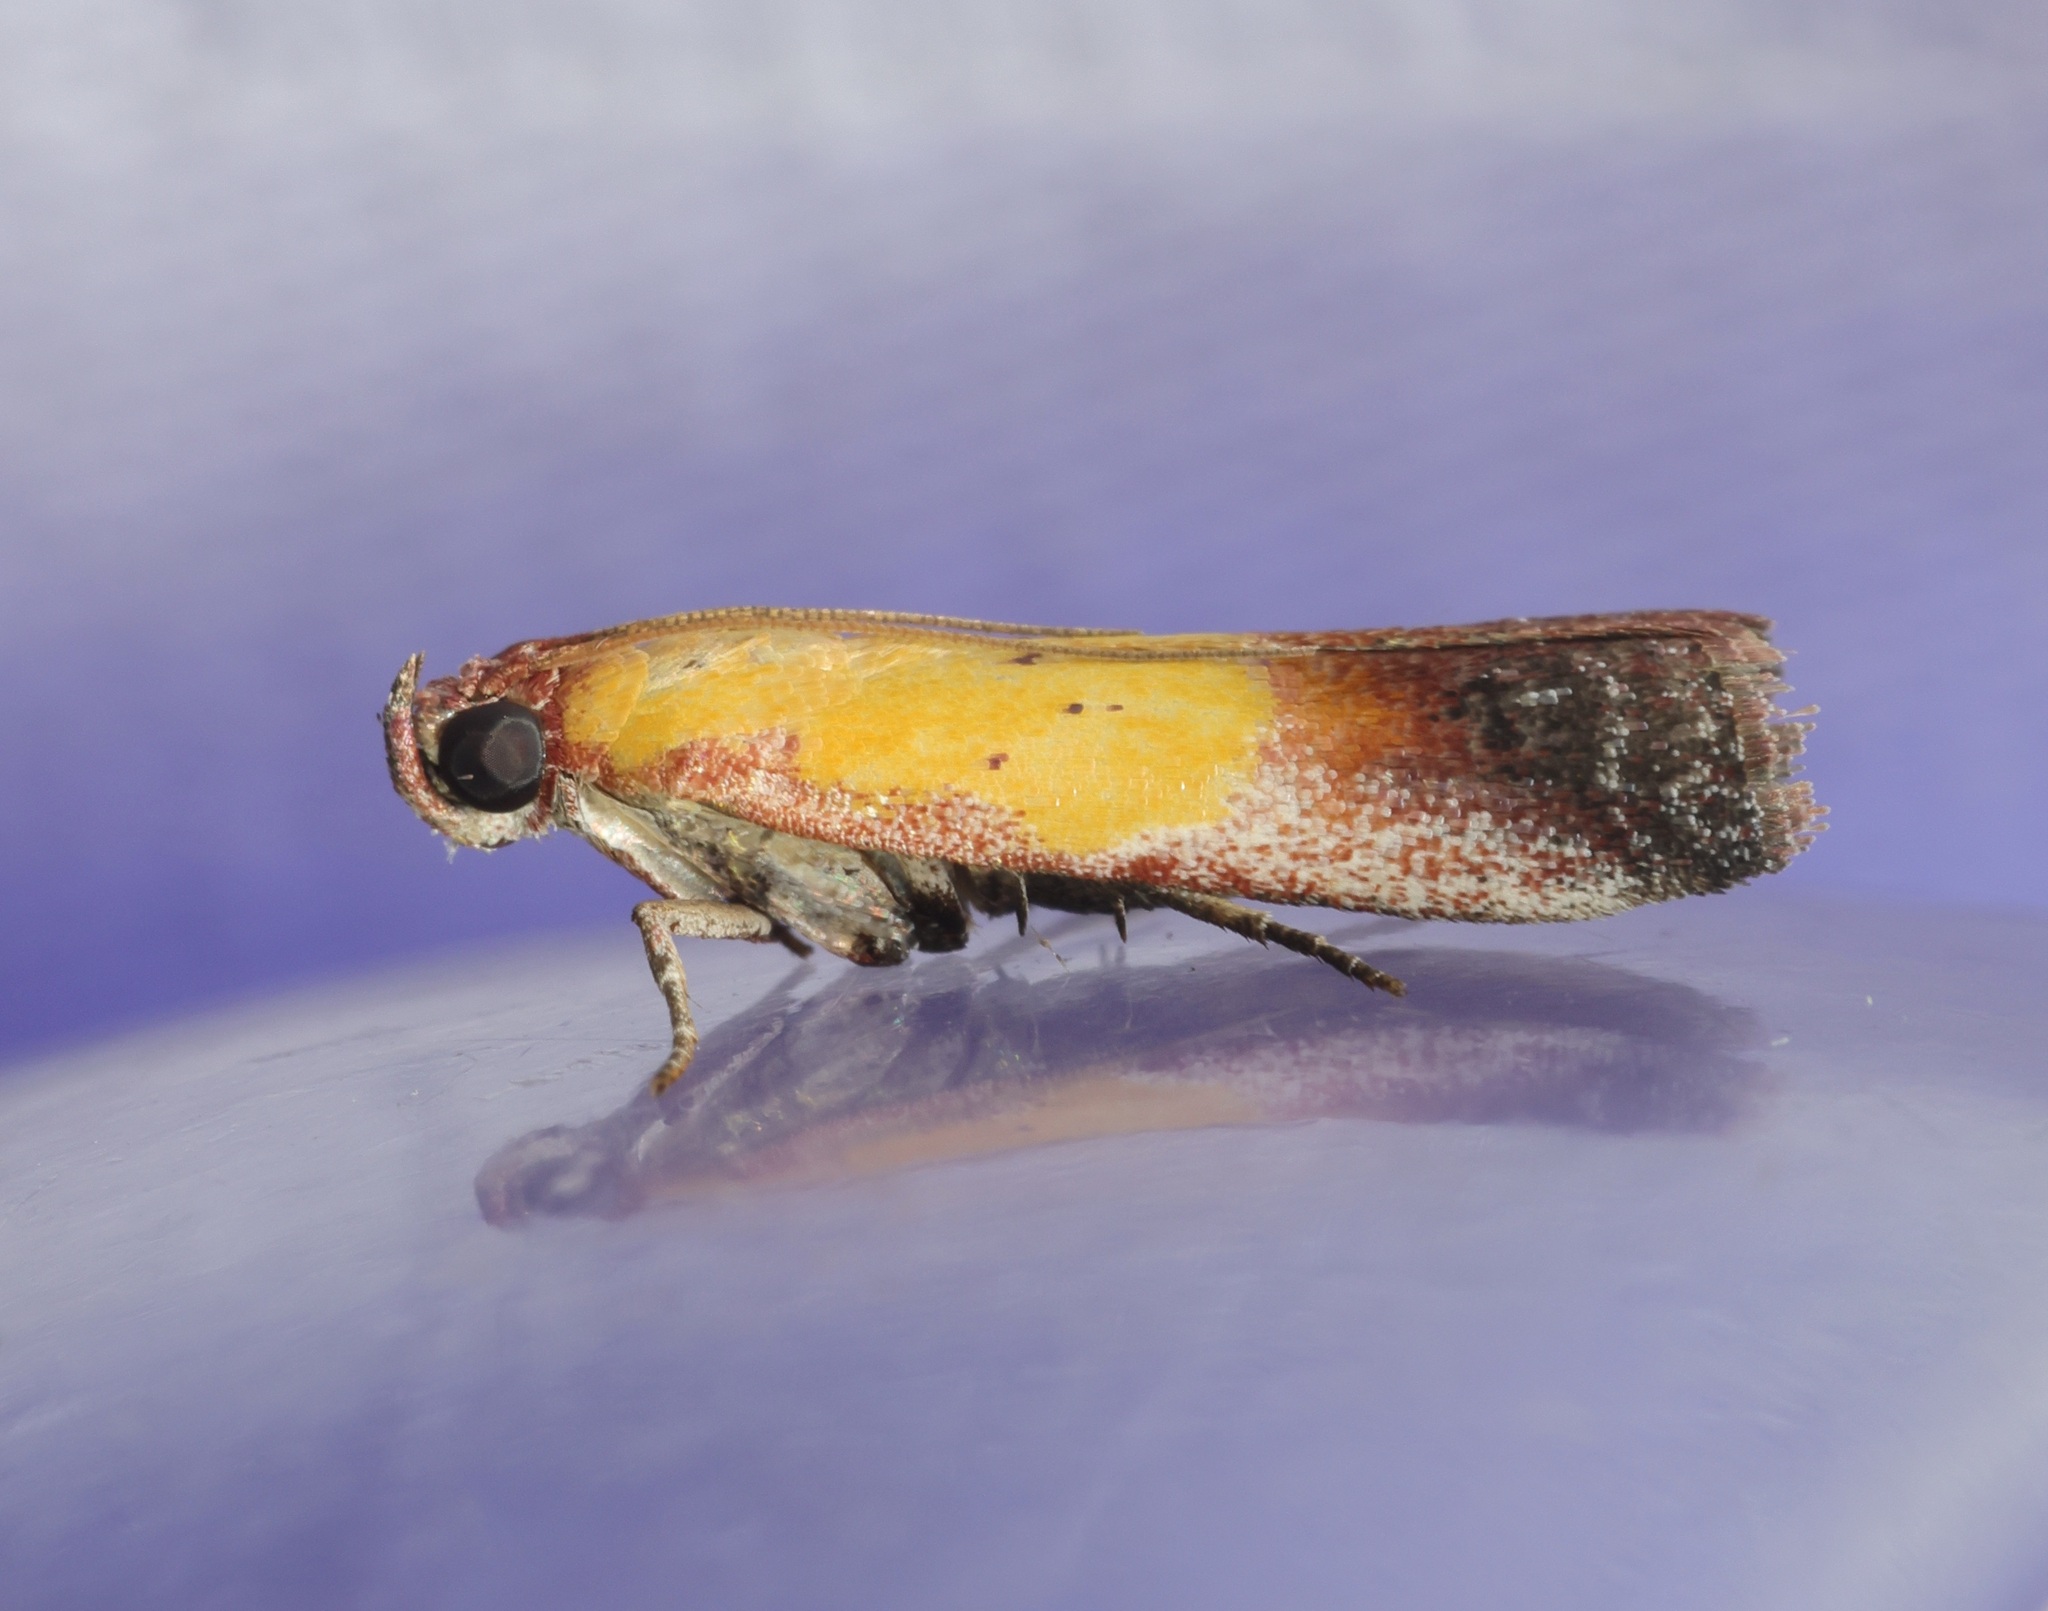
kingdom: Animalia
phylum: Arthropoda
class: Insecta
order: Lepidoptera
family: Pyralidae
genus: Piesmopoda
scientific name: Piesmopoda
